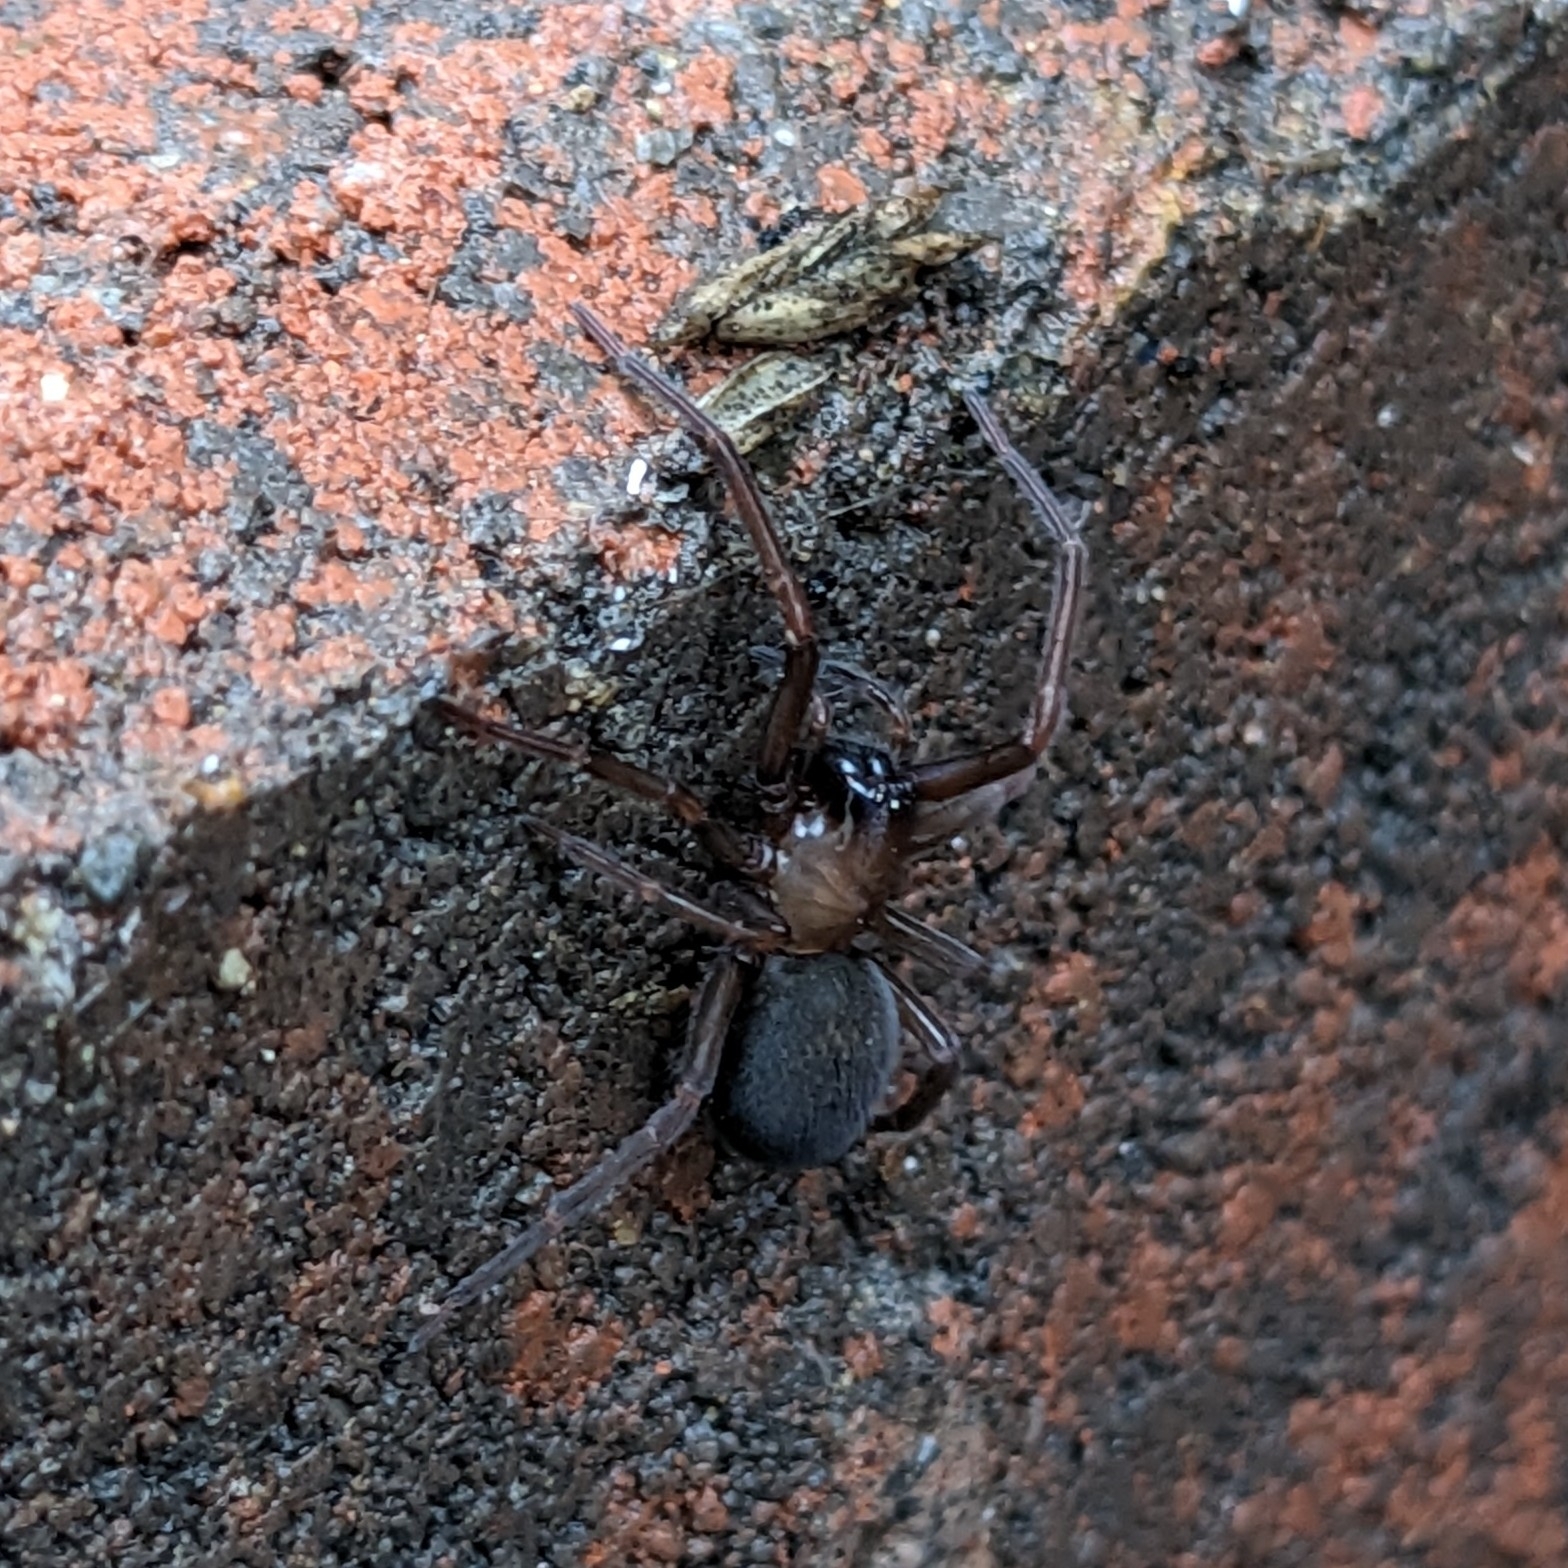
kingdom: Animalia
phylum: Arthropoda
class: Arachnida
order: Araneae
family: Desidae
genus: Metaltella
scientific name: Metaltella simoni
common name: Cribellate spider
